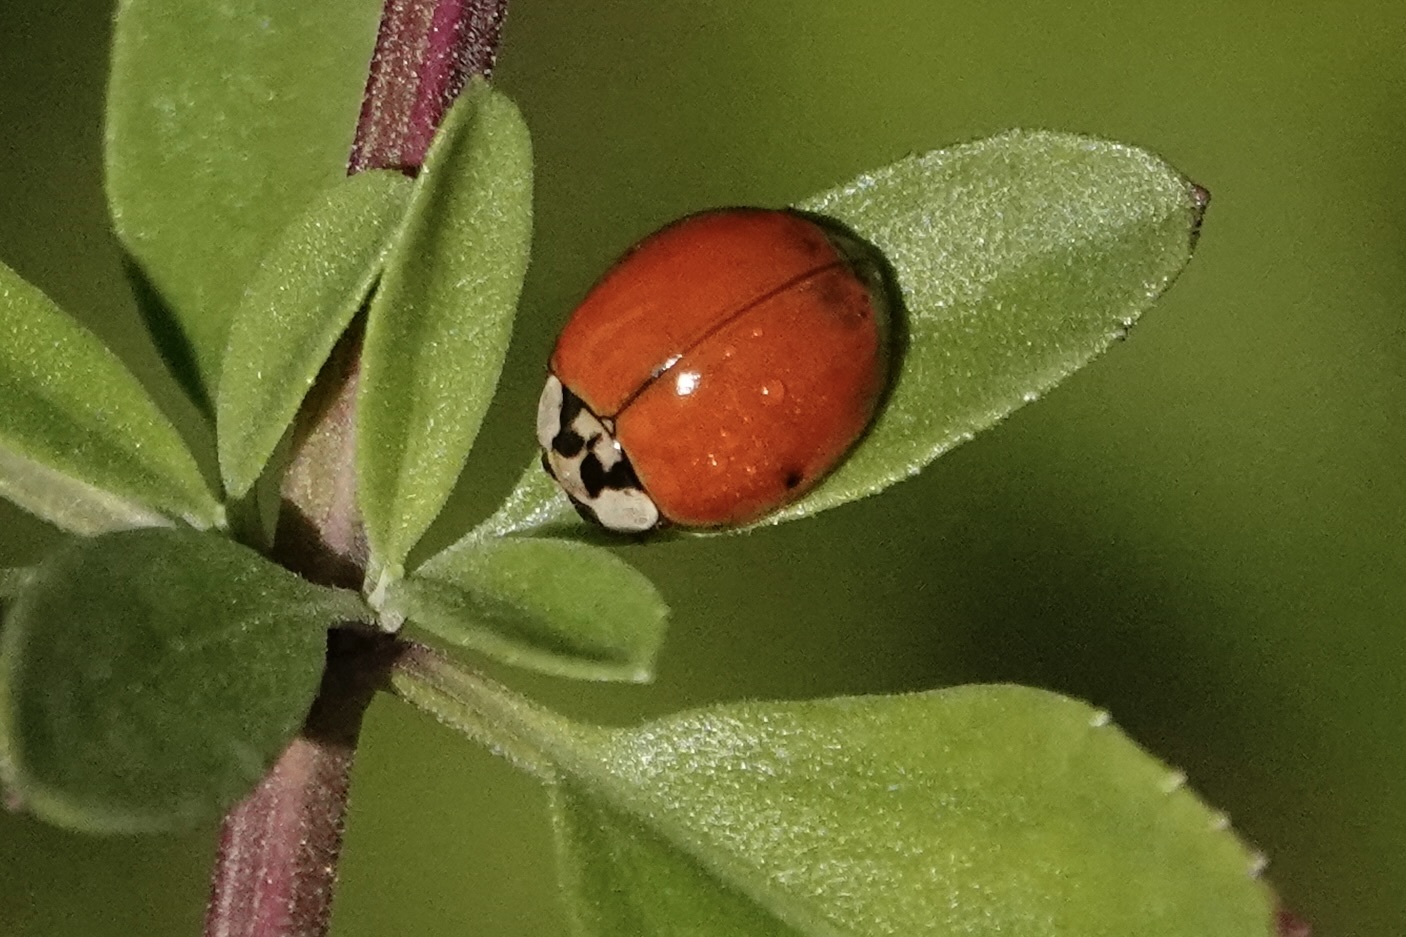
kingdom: Animalia
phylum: Arthropoda
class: Insecta
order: Coleoptera
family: Coccinellidae
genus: Harmonia
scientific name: Harmonia axyridis
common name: Harlequin ladybird
